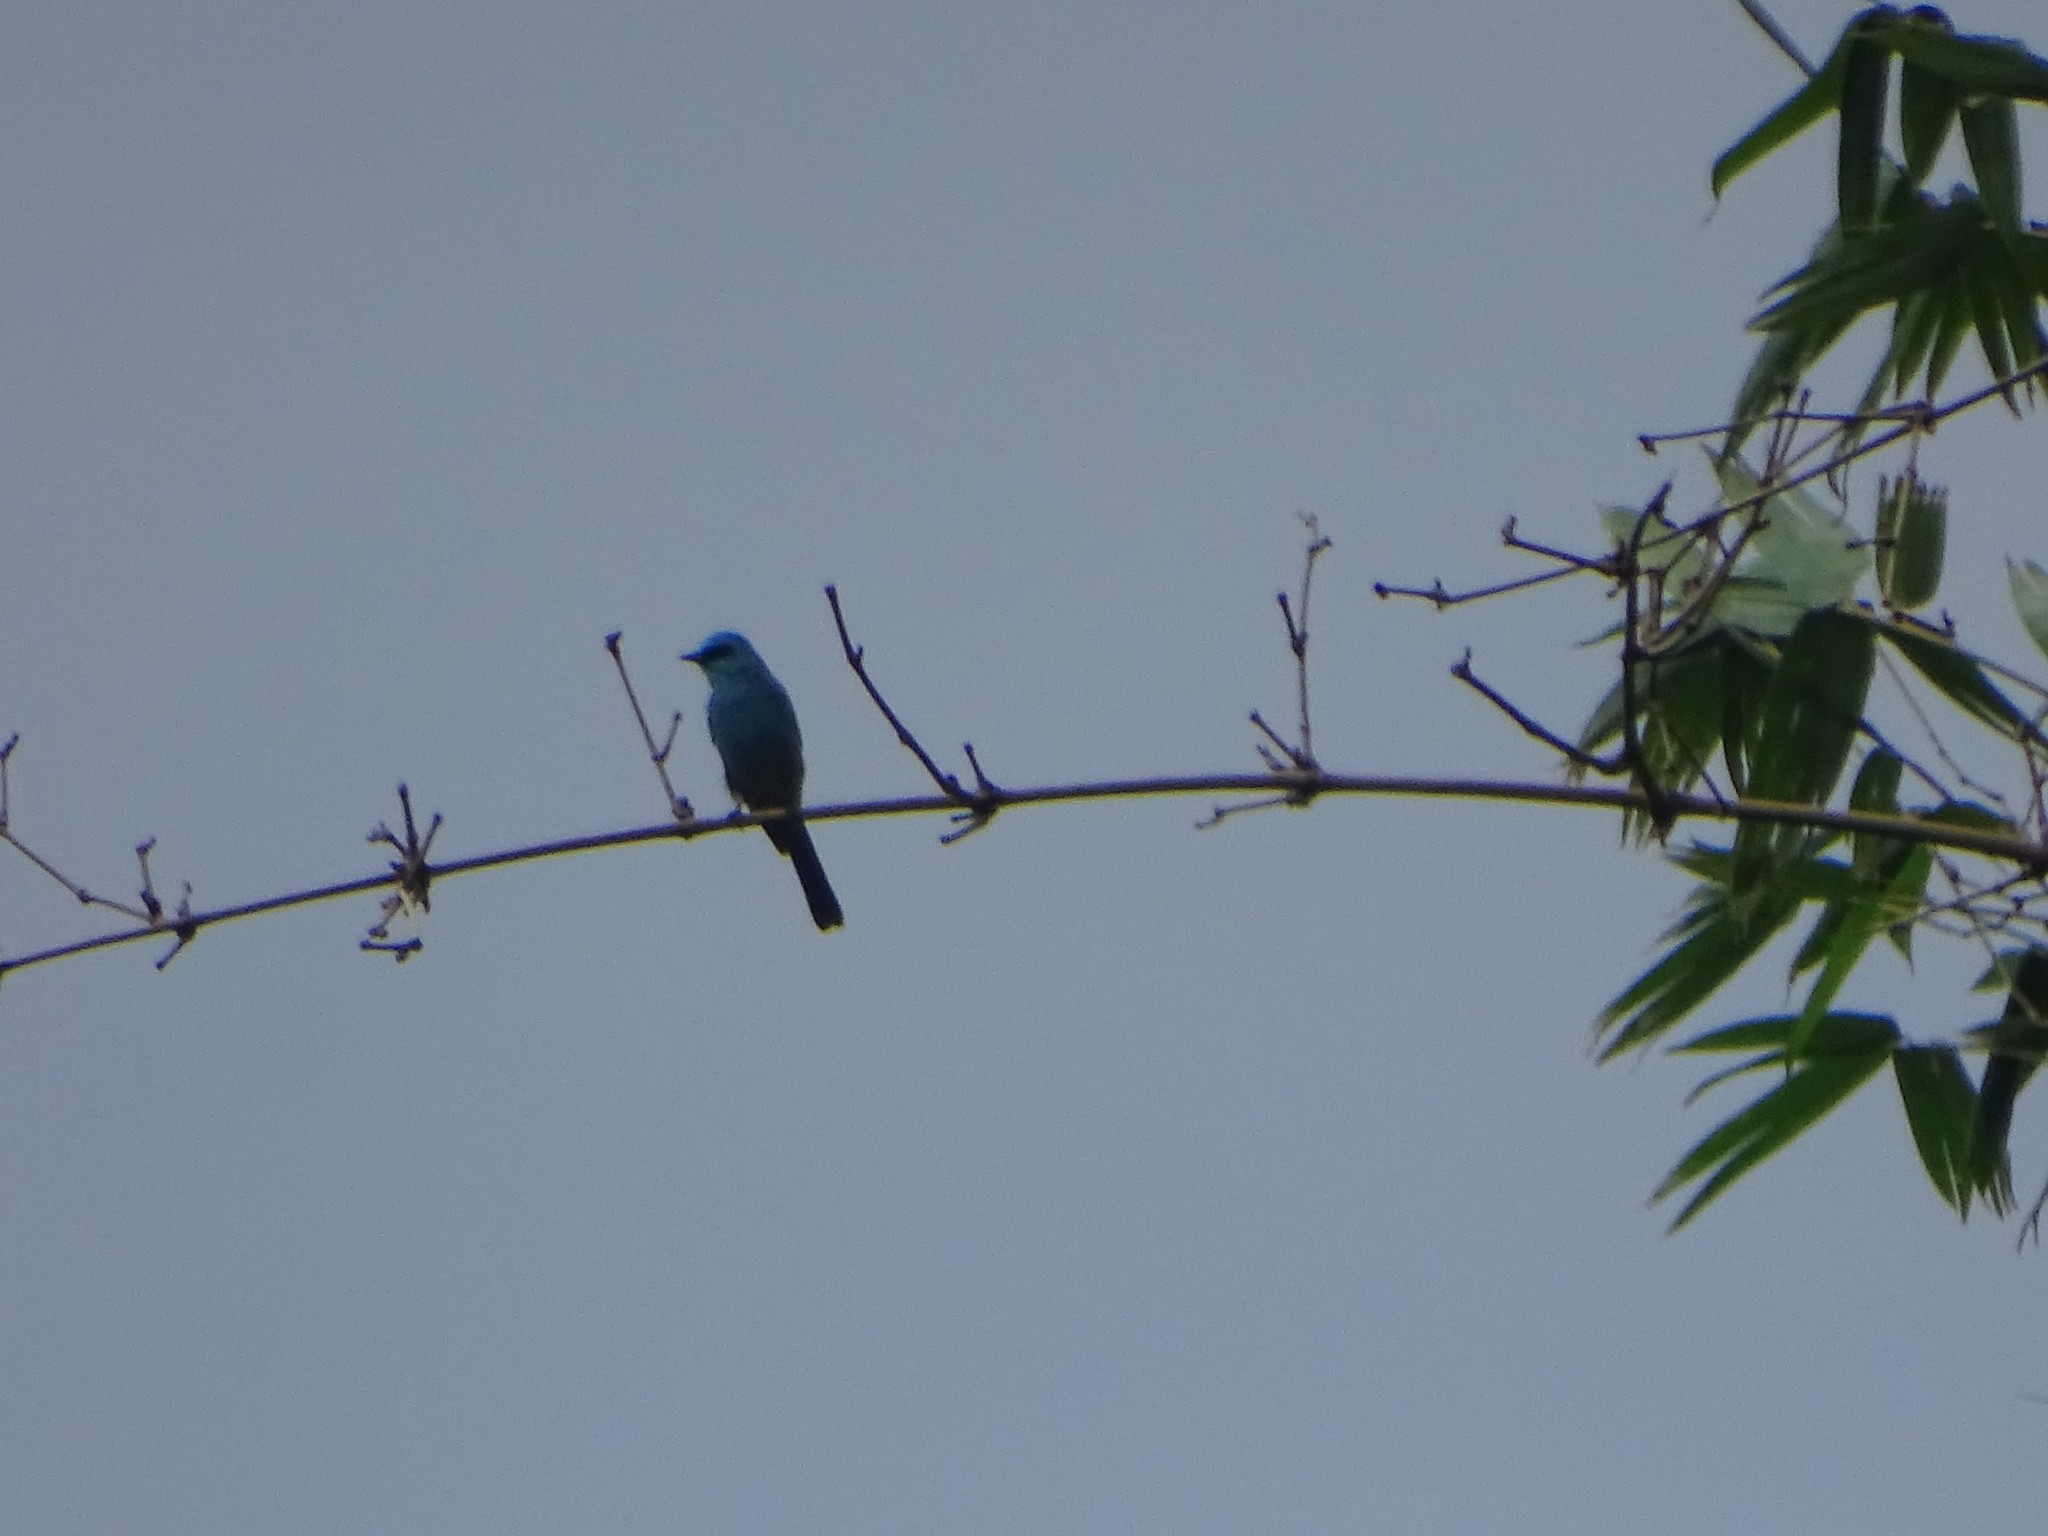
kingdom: Animalia
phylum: Chordata
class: Aves
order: Passeriformes
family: Muscicapidae
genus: Eumyias
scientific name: Eumyias thalassinus
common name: Verditer flycatcher
